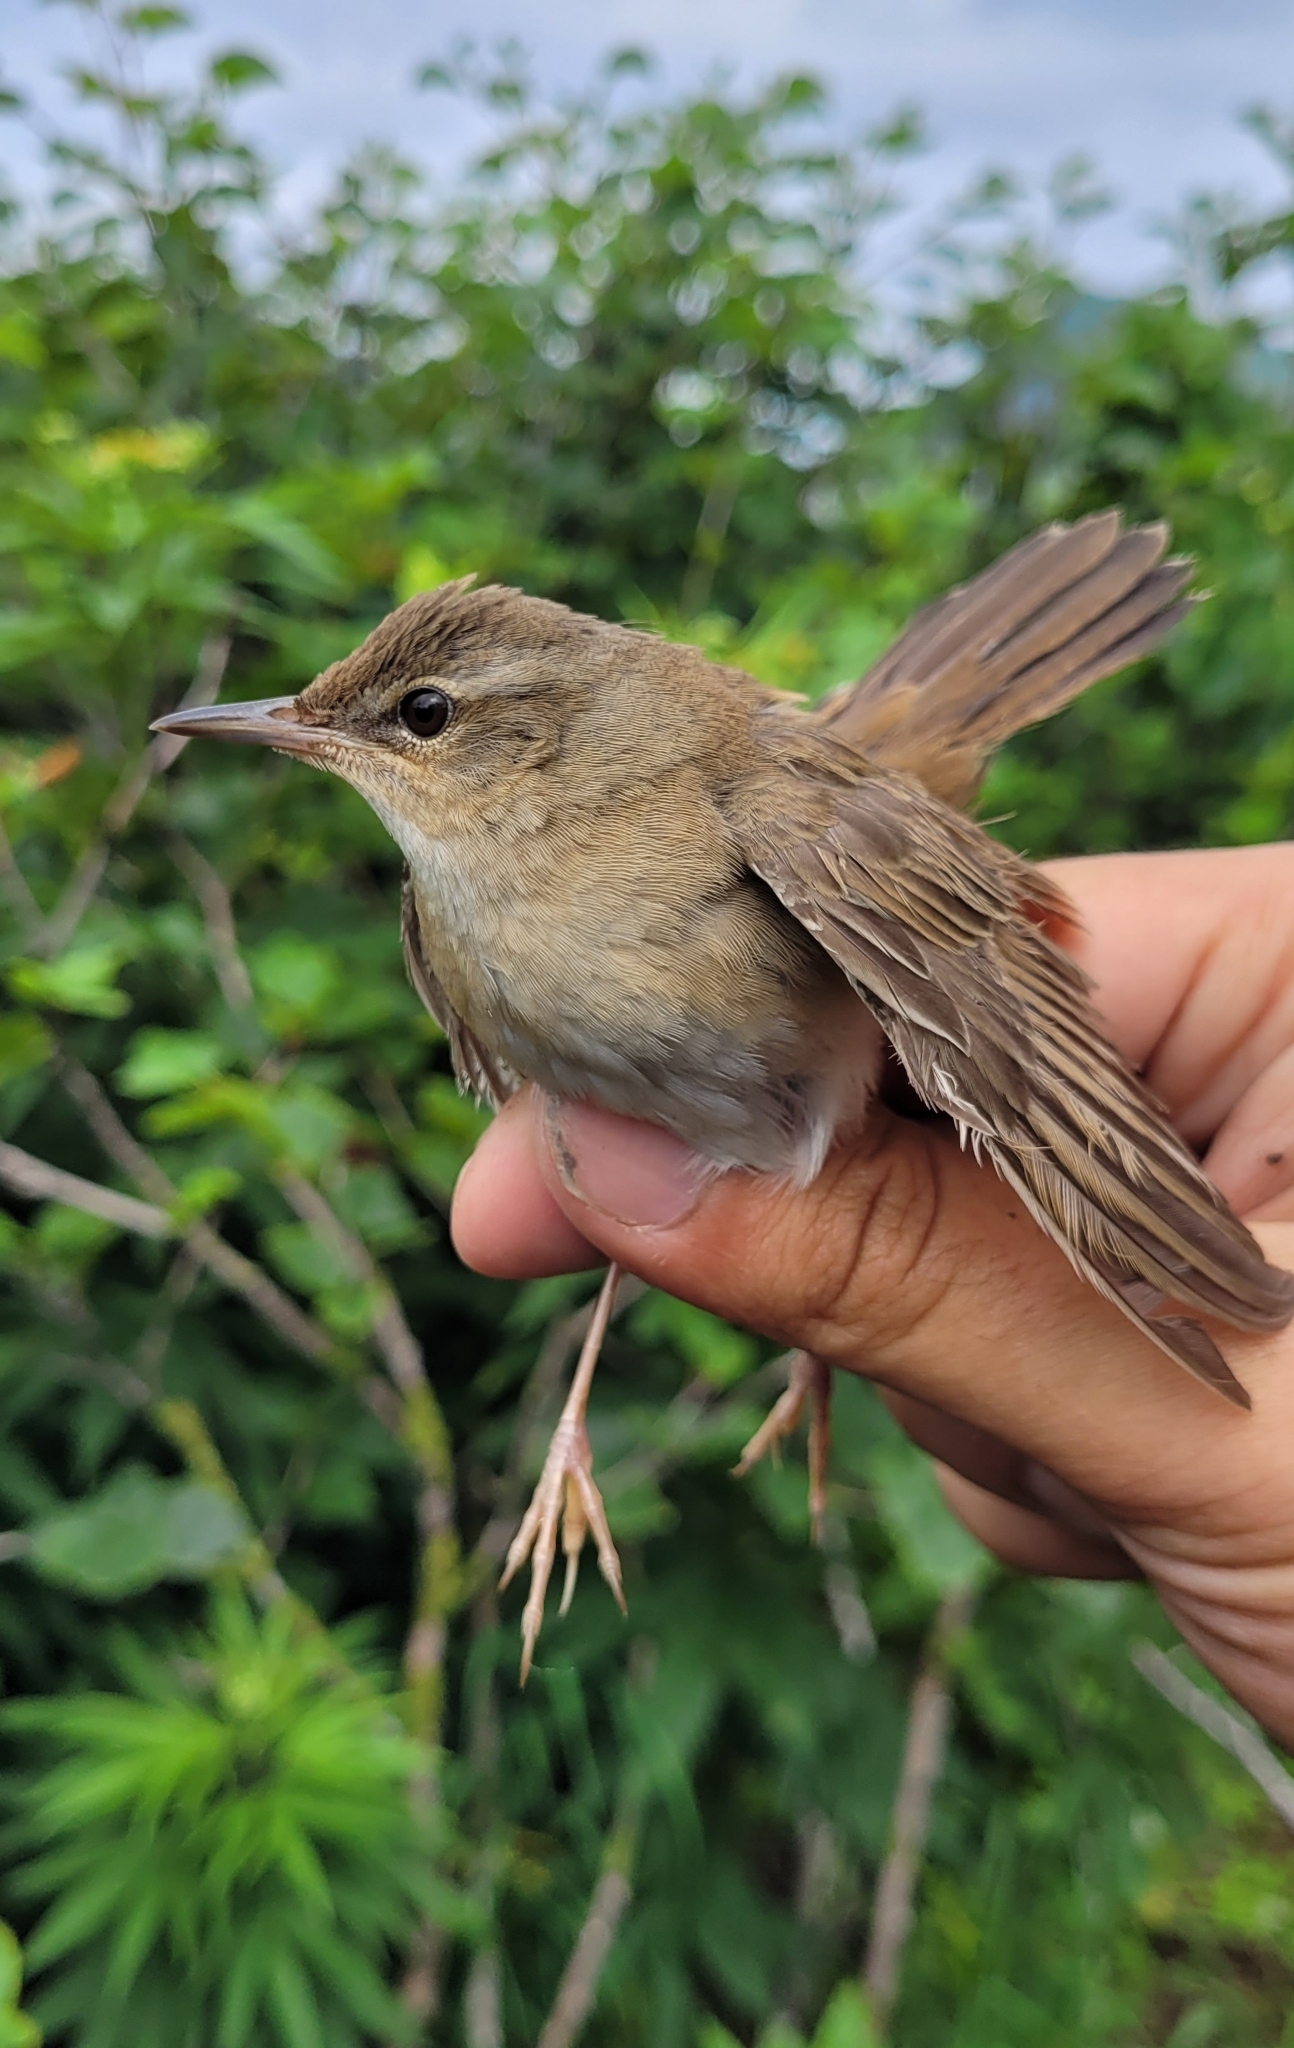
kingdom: Animalia
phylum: Chordata
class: Aves
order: Passeriformes
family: Locustellidae
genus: Locustella
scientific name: Locustella ochotensis
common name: Middendorff's grasshopper-warbler
